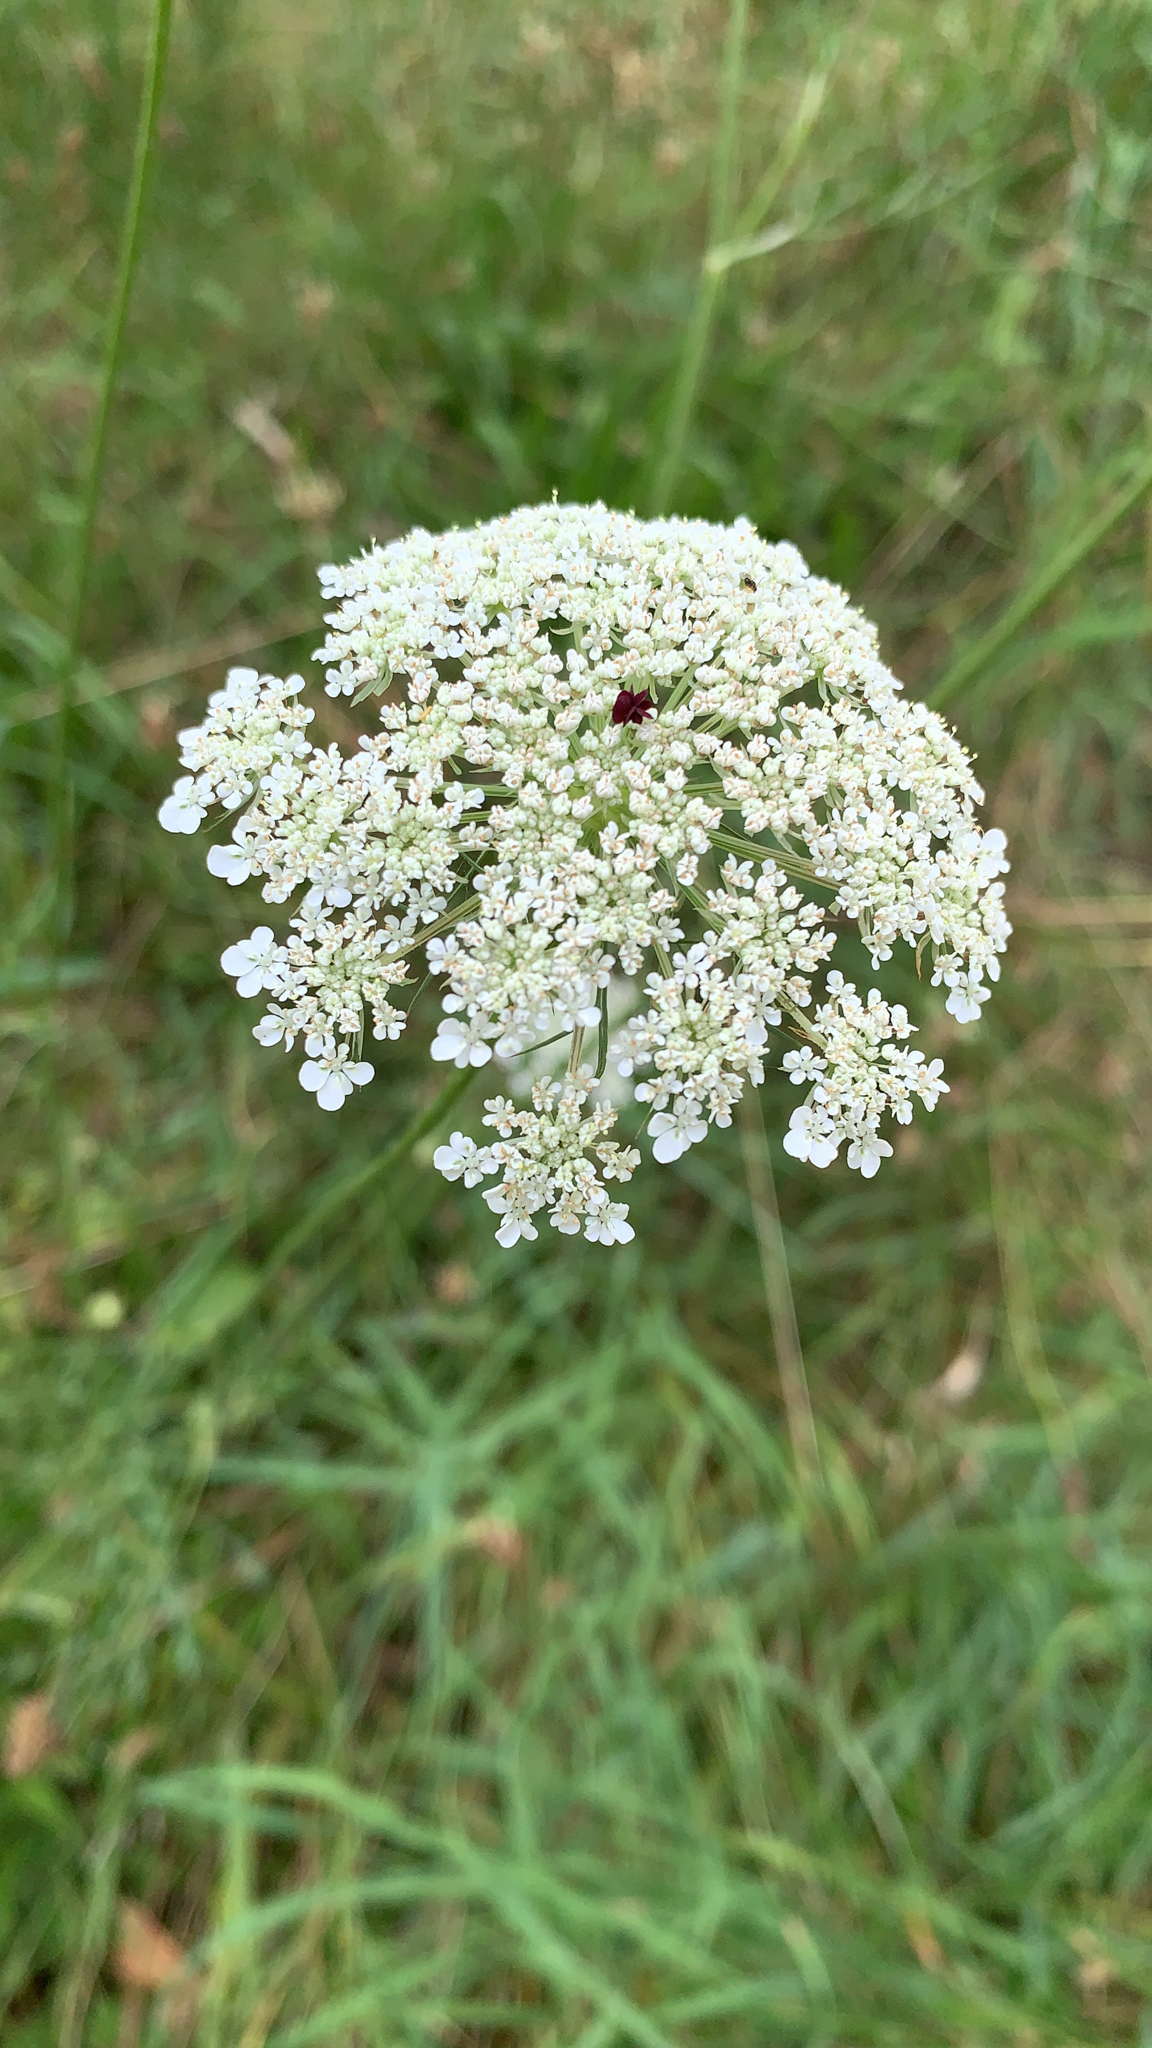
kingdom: Plantae
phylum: Tracheophyta
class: Magnoliopsida
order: Apiales
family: Apiaceae
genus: Daucus
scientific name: Daucus carota
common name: Wild carrot
